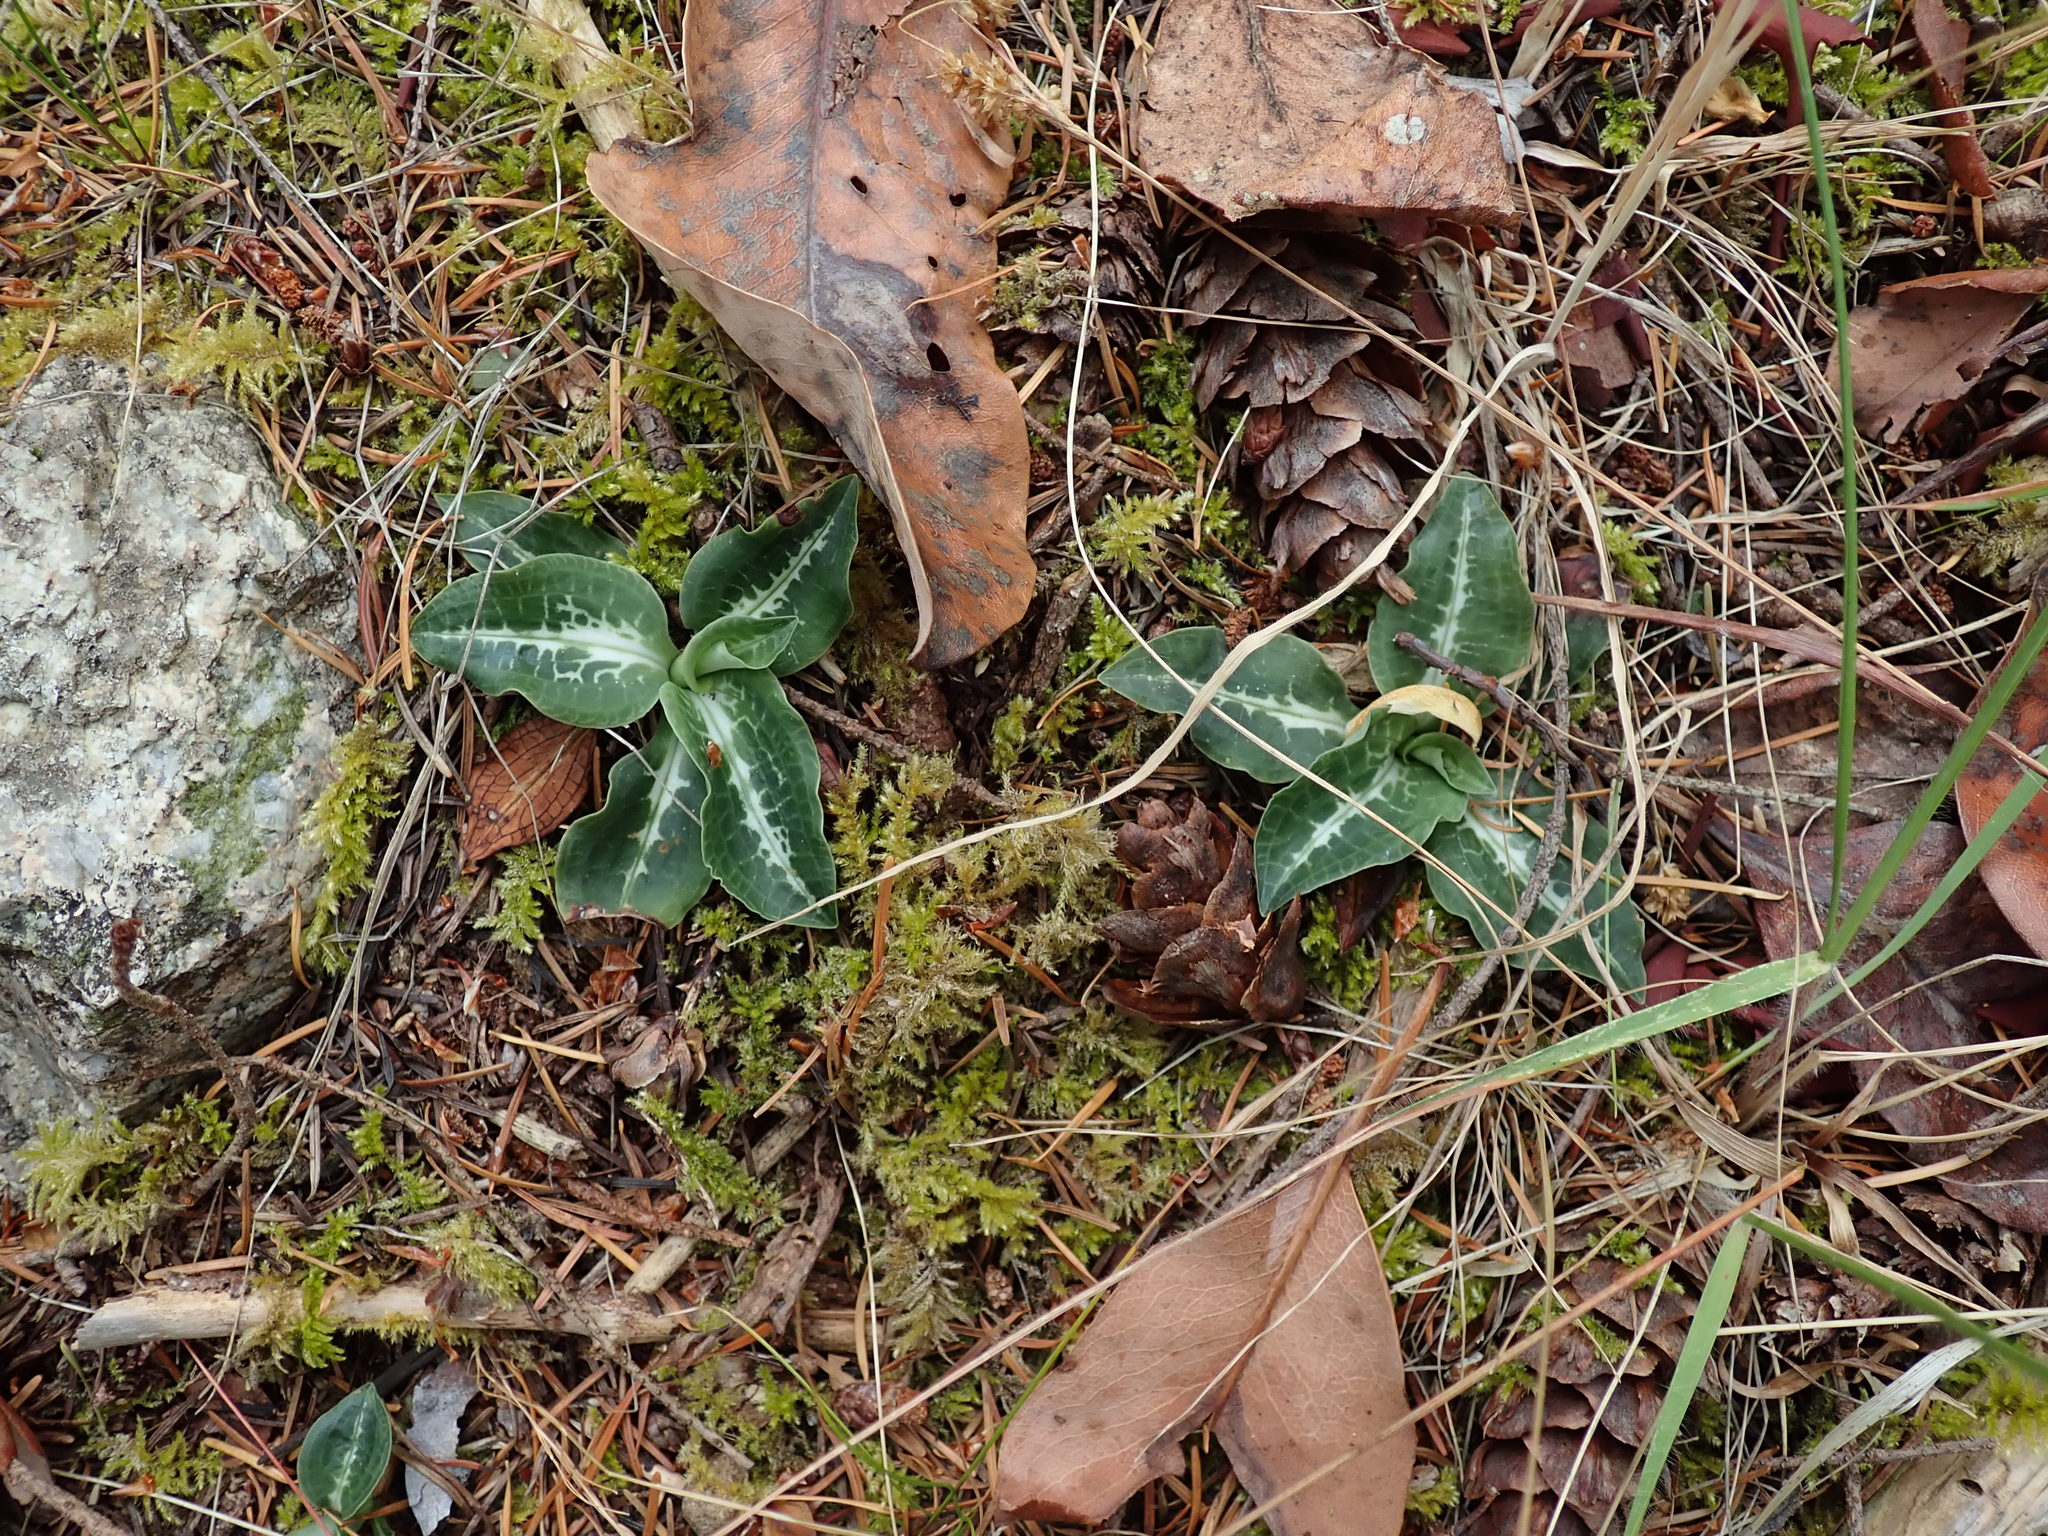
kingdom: Plantae
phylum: Tracheophyta
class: Liliopsida
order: Asparagales
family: Orchidaceae
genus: Goodyera
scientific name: Goodyera oblongifolia
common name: Giant rattlesnake-plantain
